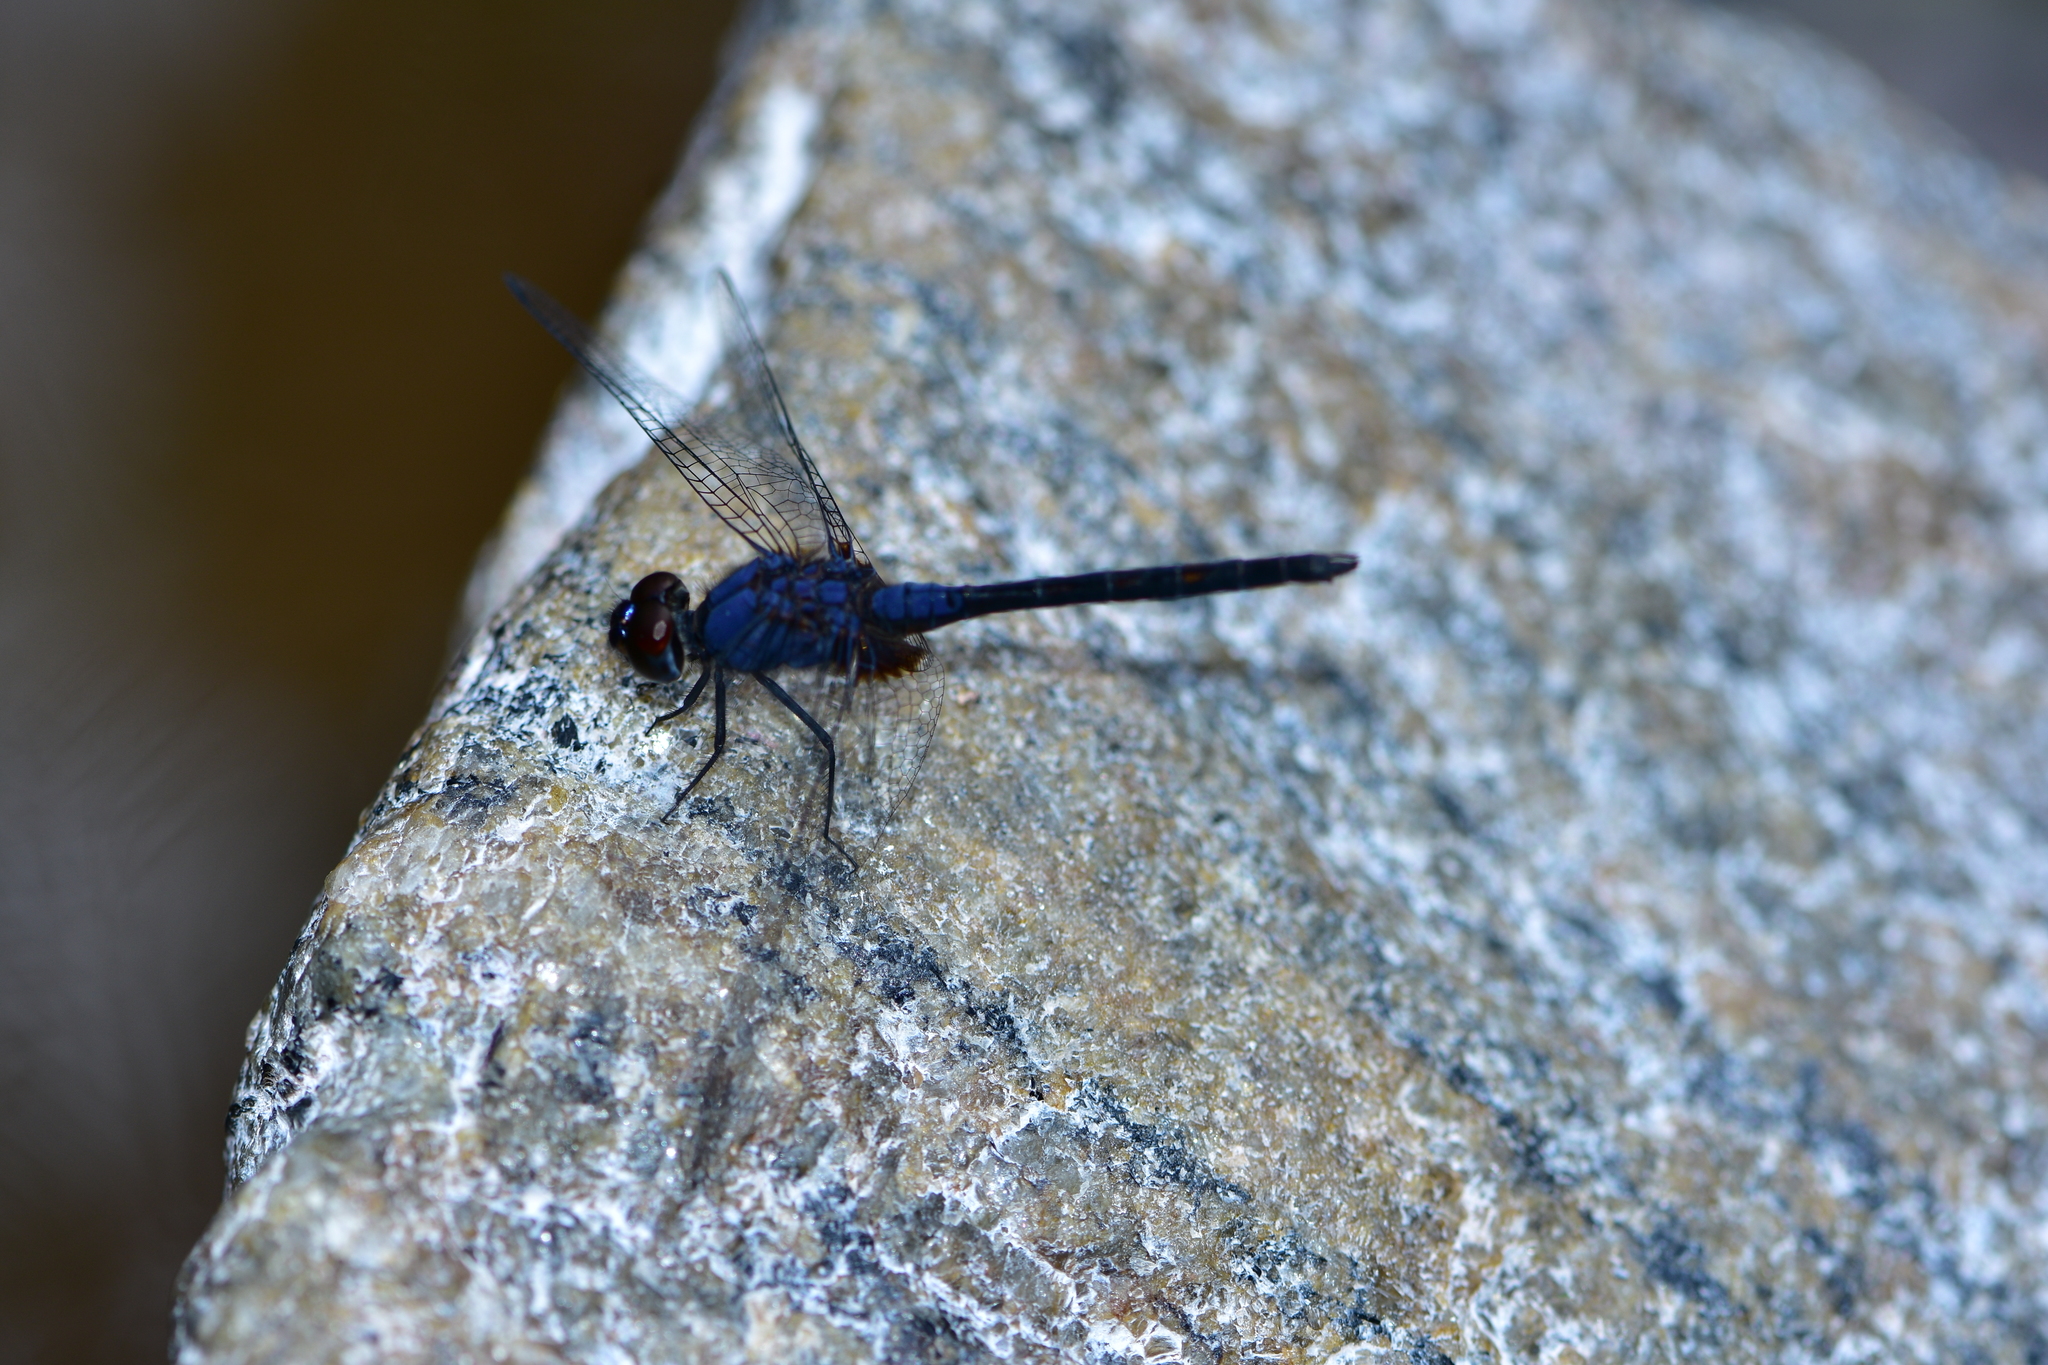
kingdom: Animalia
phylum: Arthropoda
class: Insecta
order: Odonata
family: Libellulidae
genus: Trithemis
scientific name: Trithemis festiva
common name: Indigo dropwing
